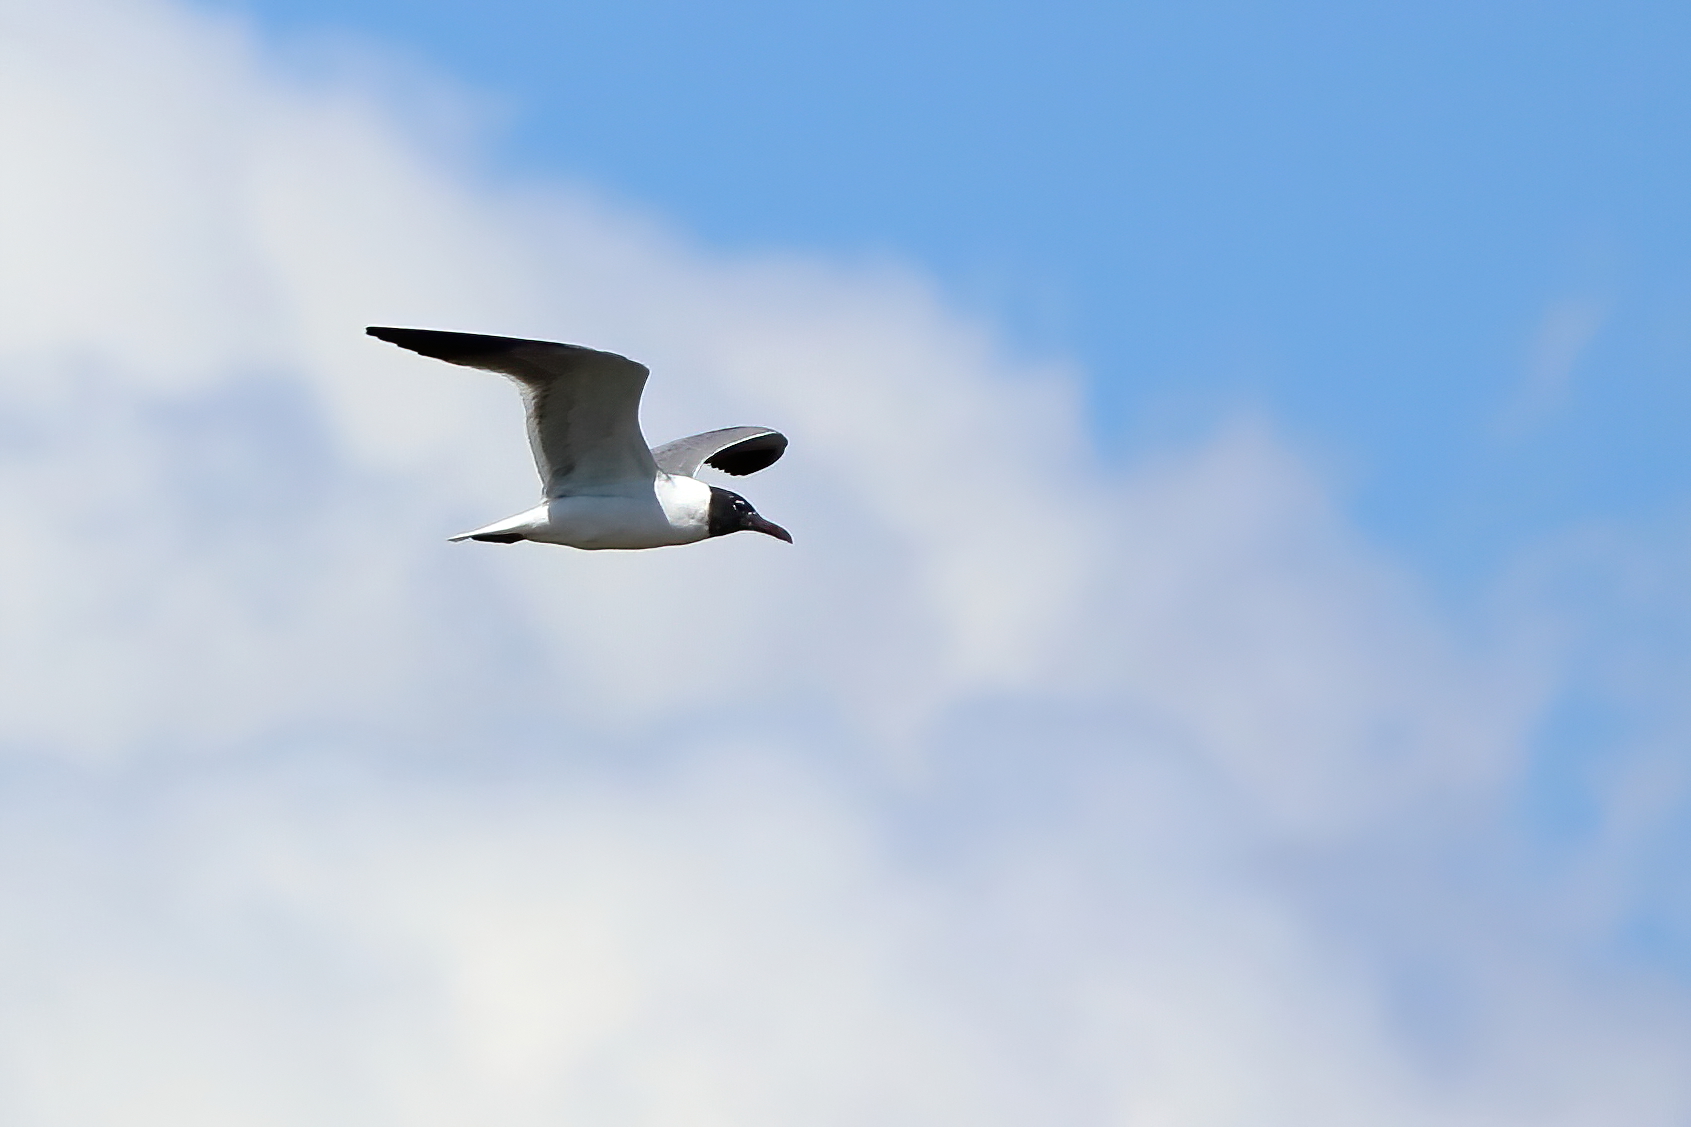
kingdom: Animalia
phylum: Chordata
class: Aves
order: Charadriiformes
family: Laridae
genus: Leucophaeus
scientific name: Leucophaeus atricilla
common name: Laughing gull
